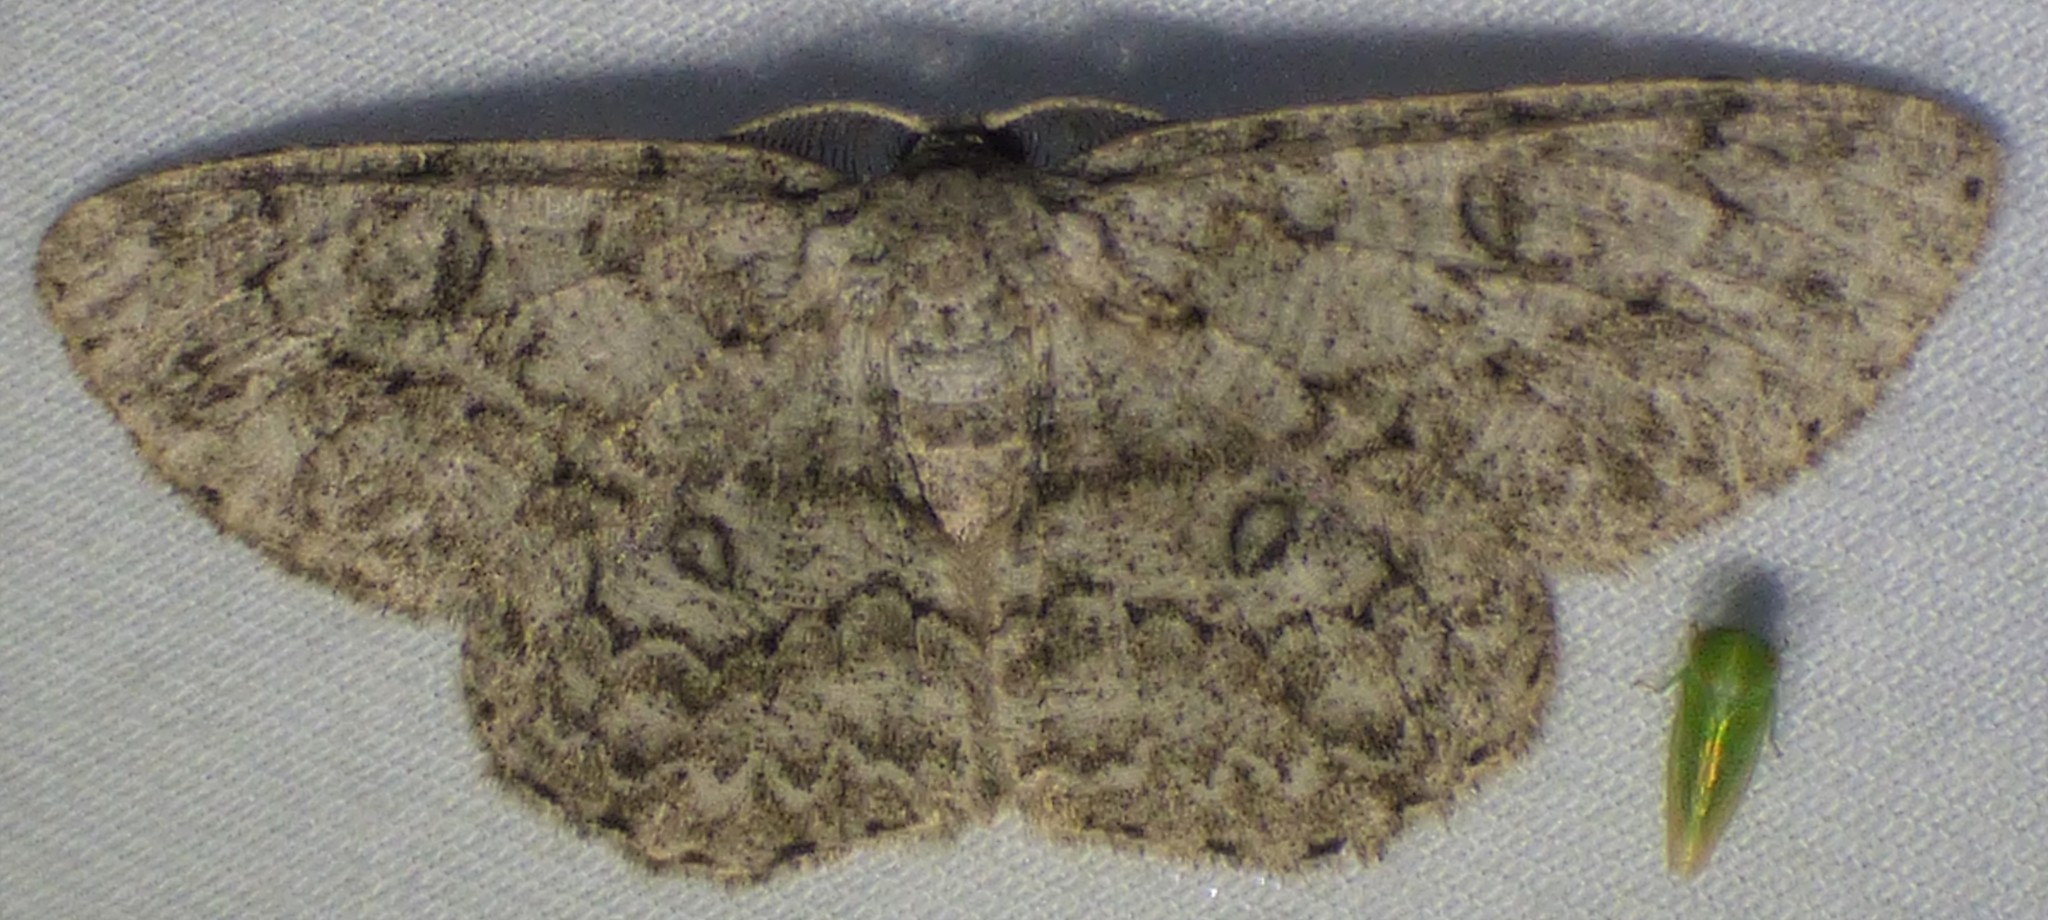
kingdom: Animalia
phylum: Arthropoda
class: Insecta
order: Lepidoptera
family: Geometridae
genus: Hypomecis
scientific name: Hypomecis umbrosaria
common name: Umber moth
